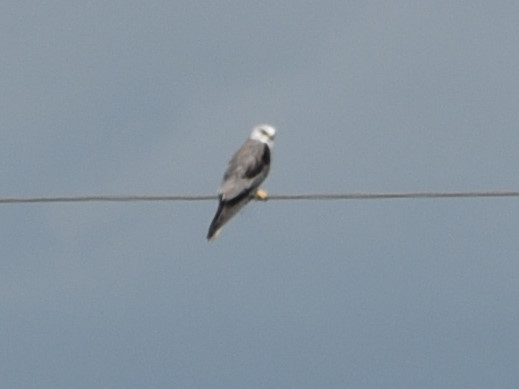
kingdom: Animalia
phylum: Chordata
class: Aves
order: Accipitriformes
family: Accipitridae
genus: Elanus
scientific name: Elanus leucurus
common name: White-tailed kite
